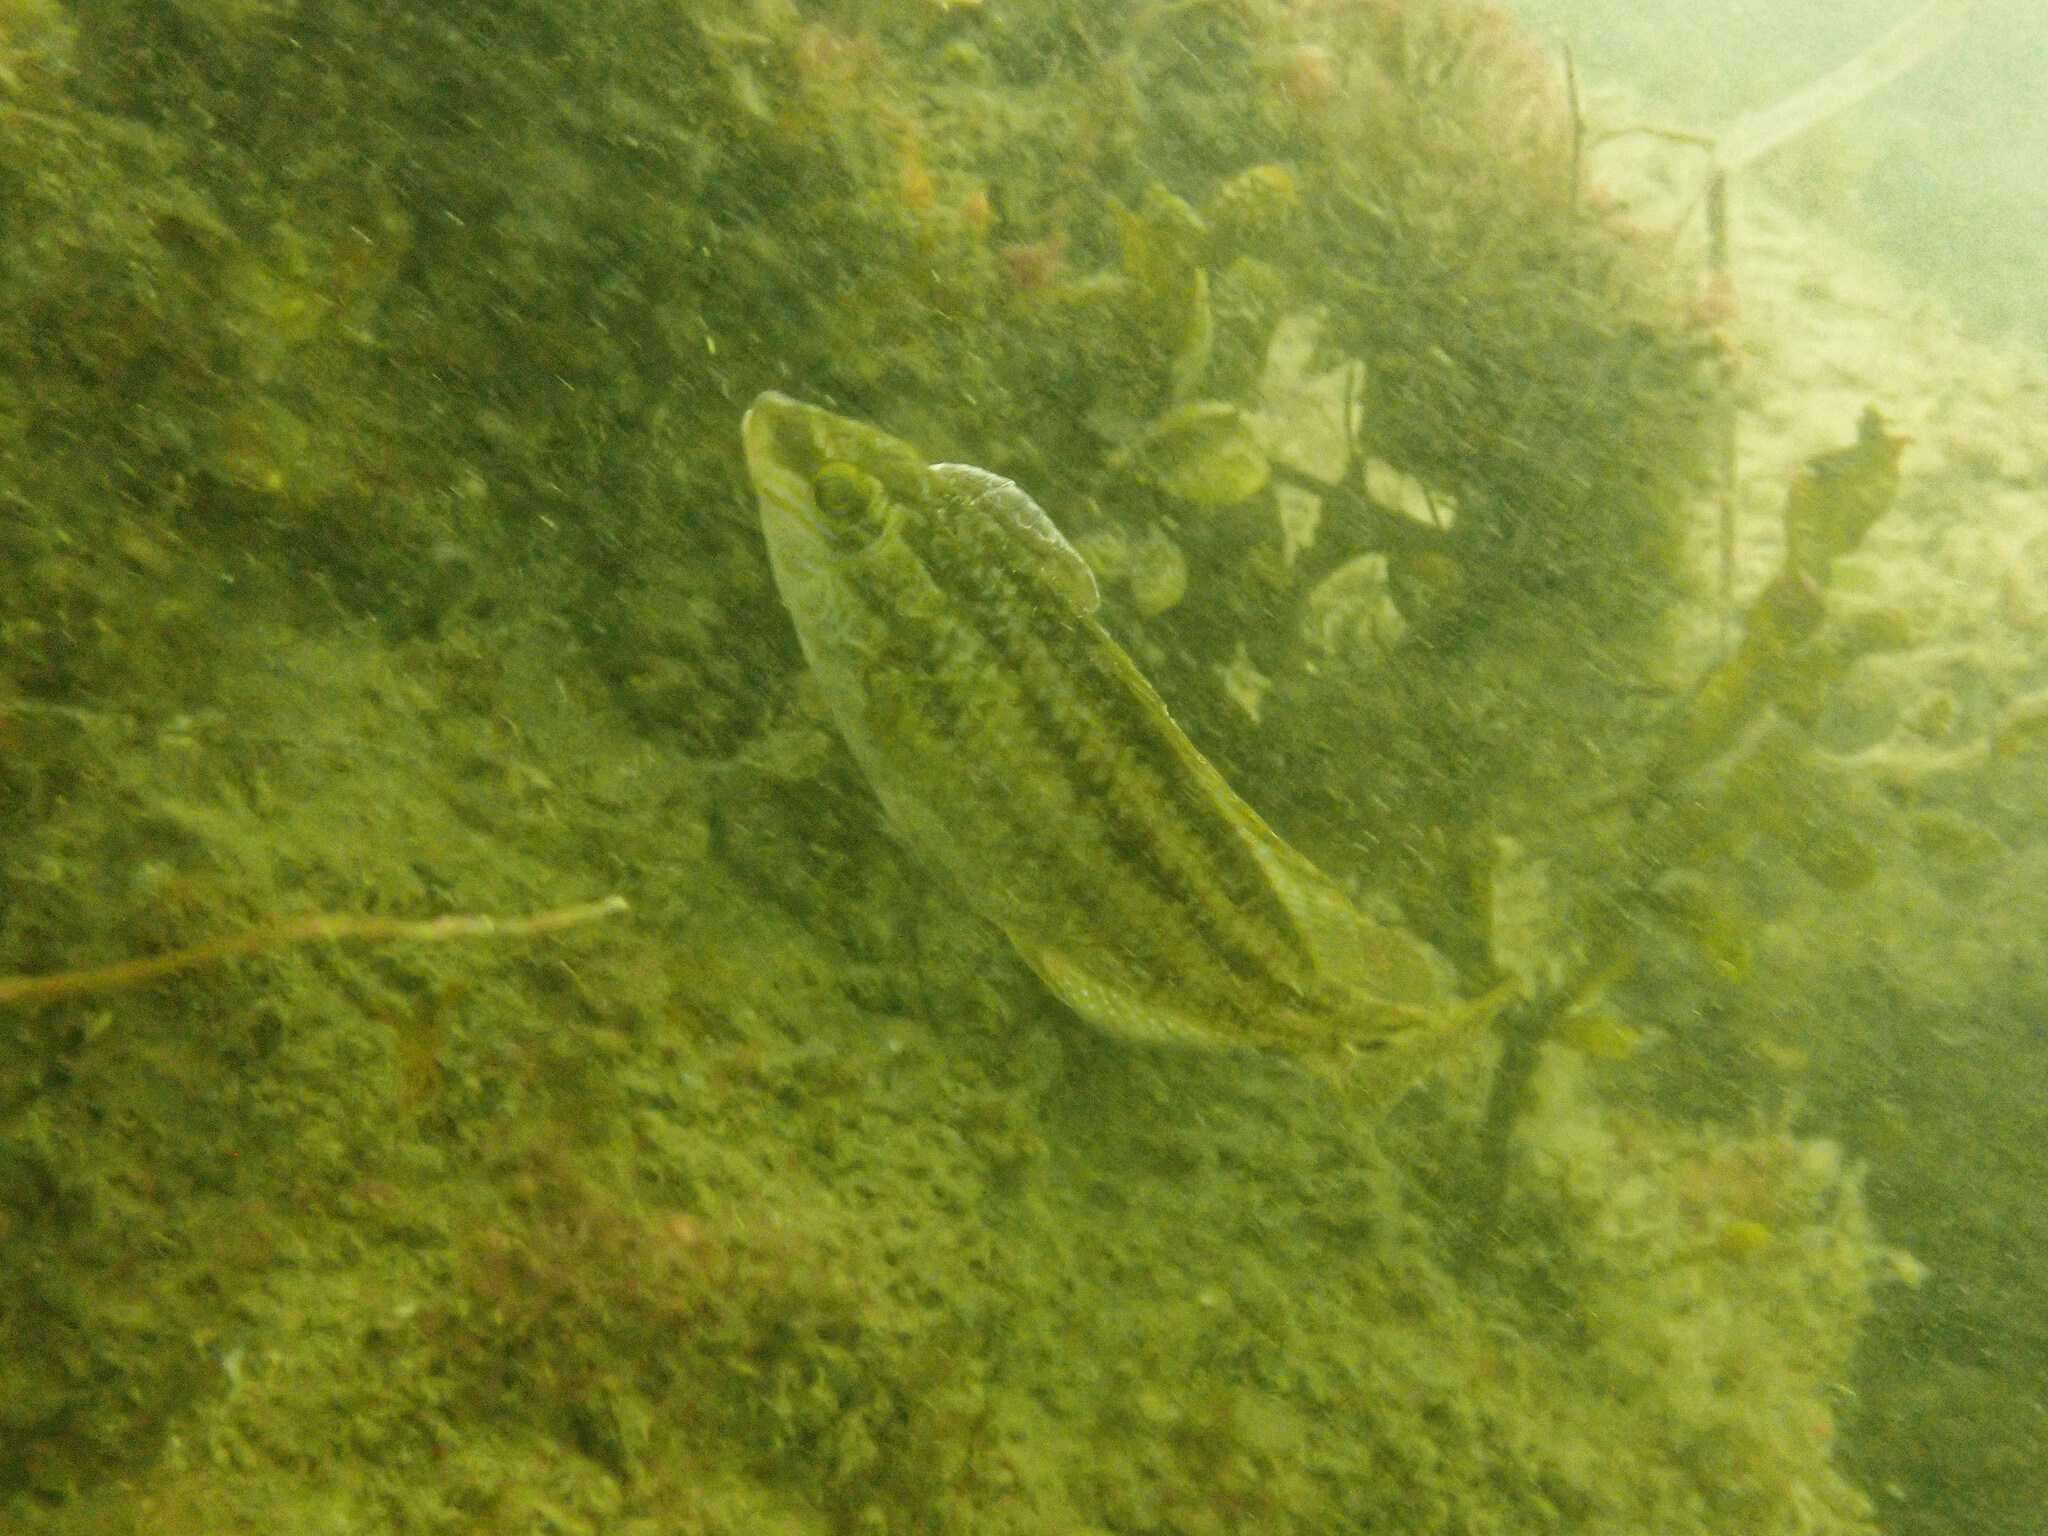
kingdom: Animalia
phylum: Chordata
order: Perciformes
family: Labridae
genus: Symphodus
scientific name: Symphodus melops
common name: Corkwing
